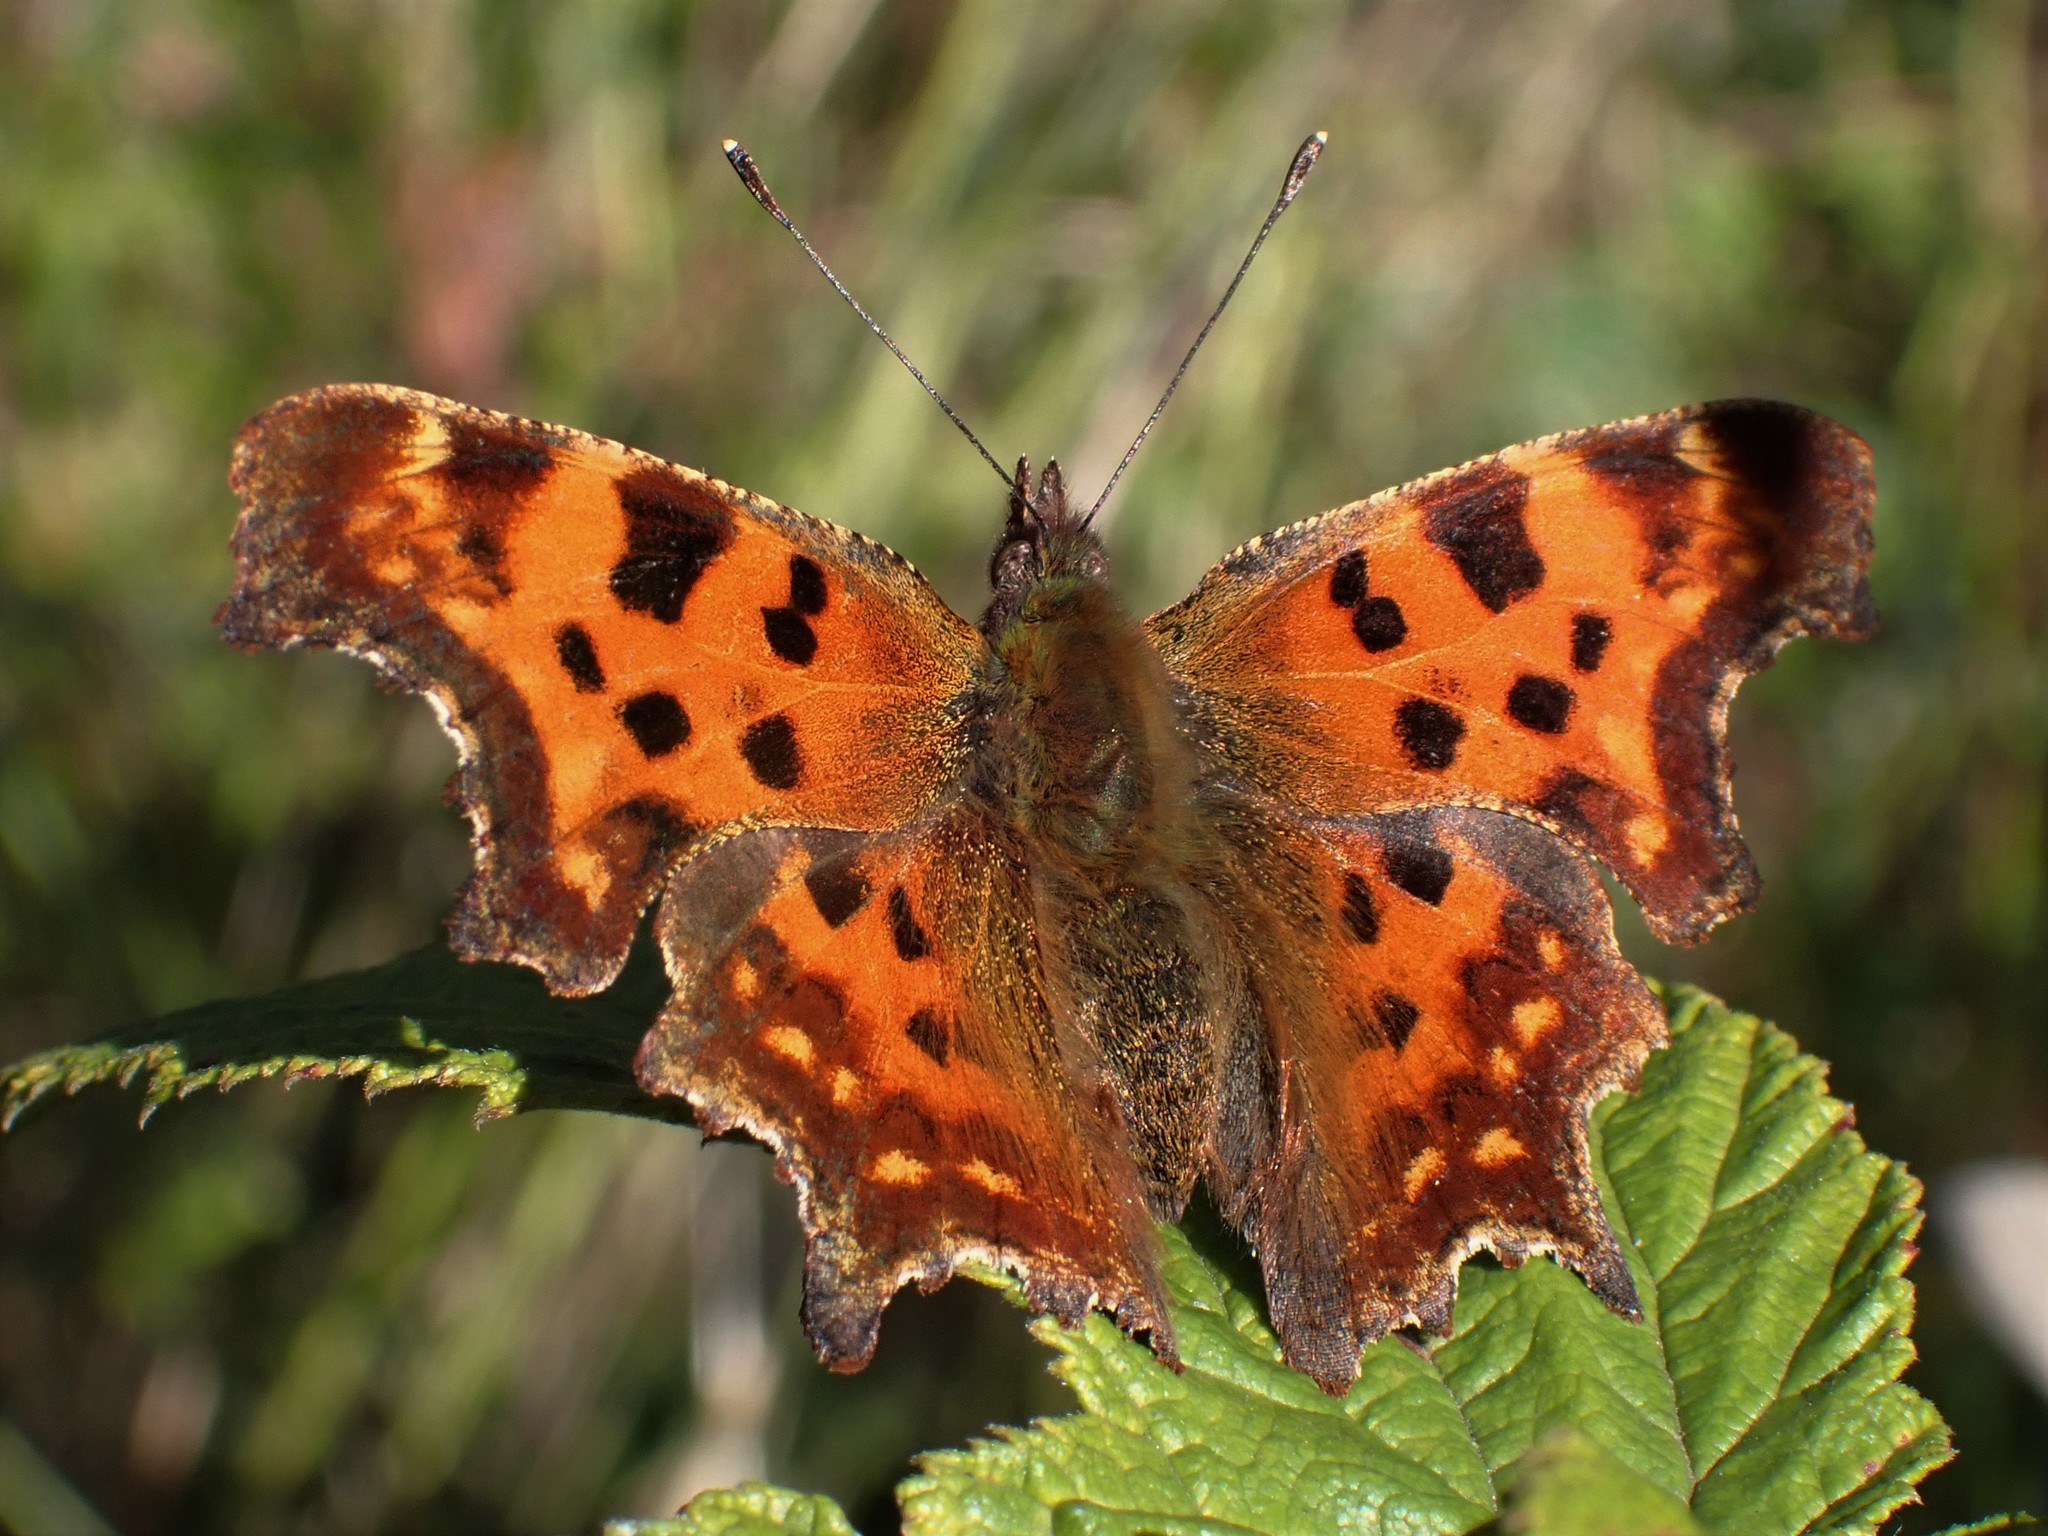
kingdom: Animalia
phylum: Arthropoda
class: Insecta
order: Lepidoptera
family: Nymphalidae
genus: Polygonia
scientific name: Polygonia c-album
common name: Comma
